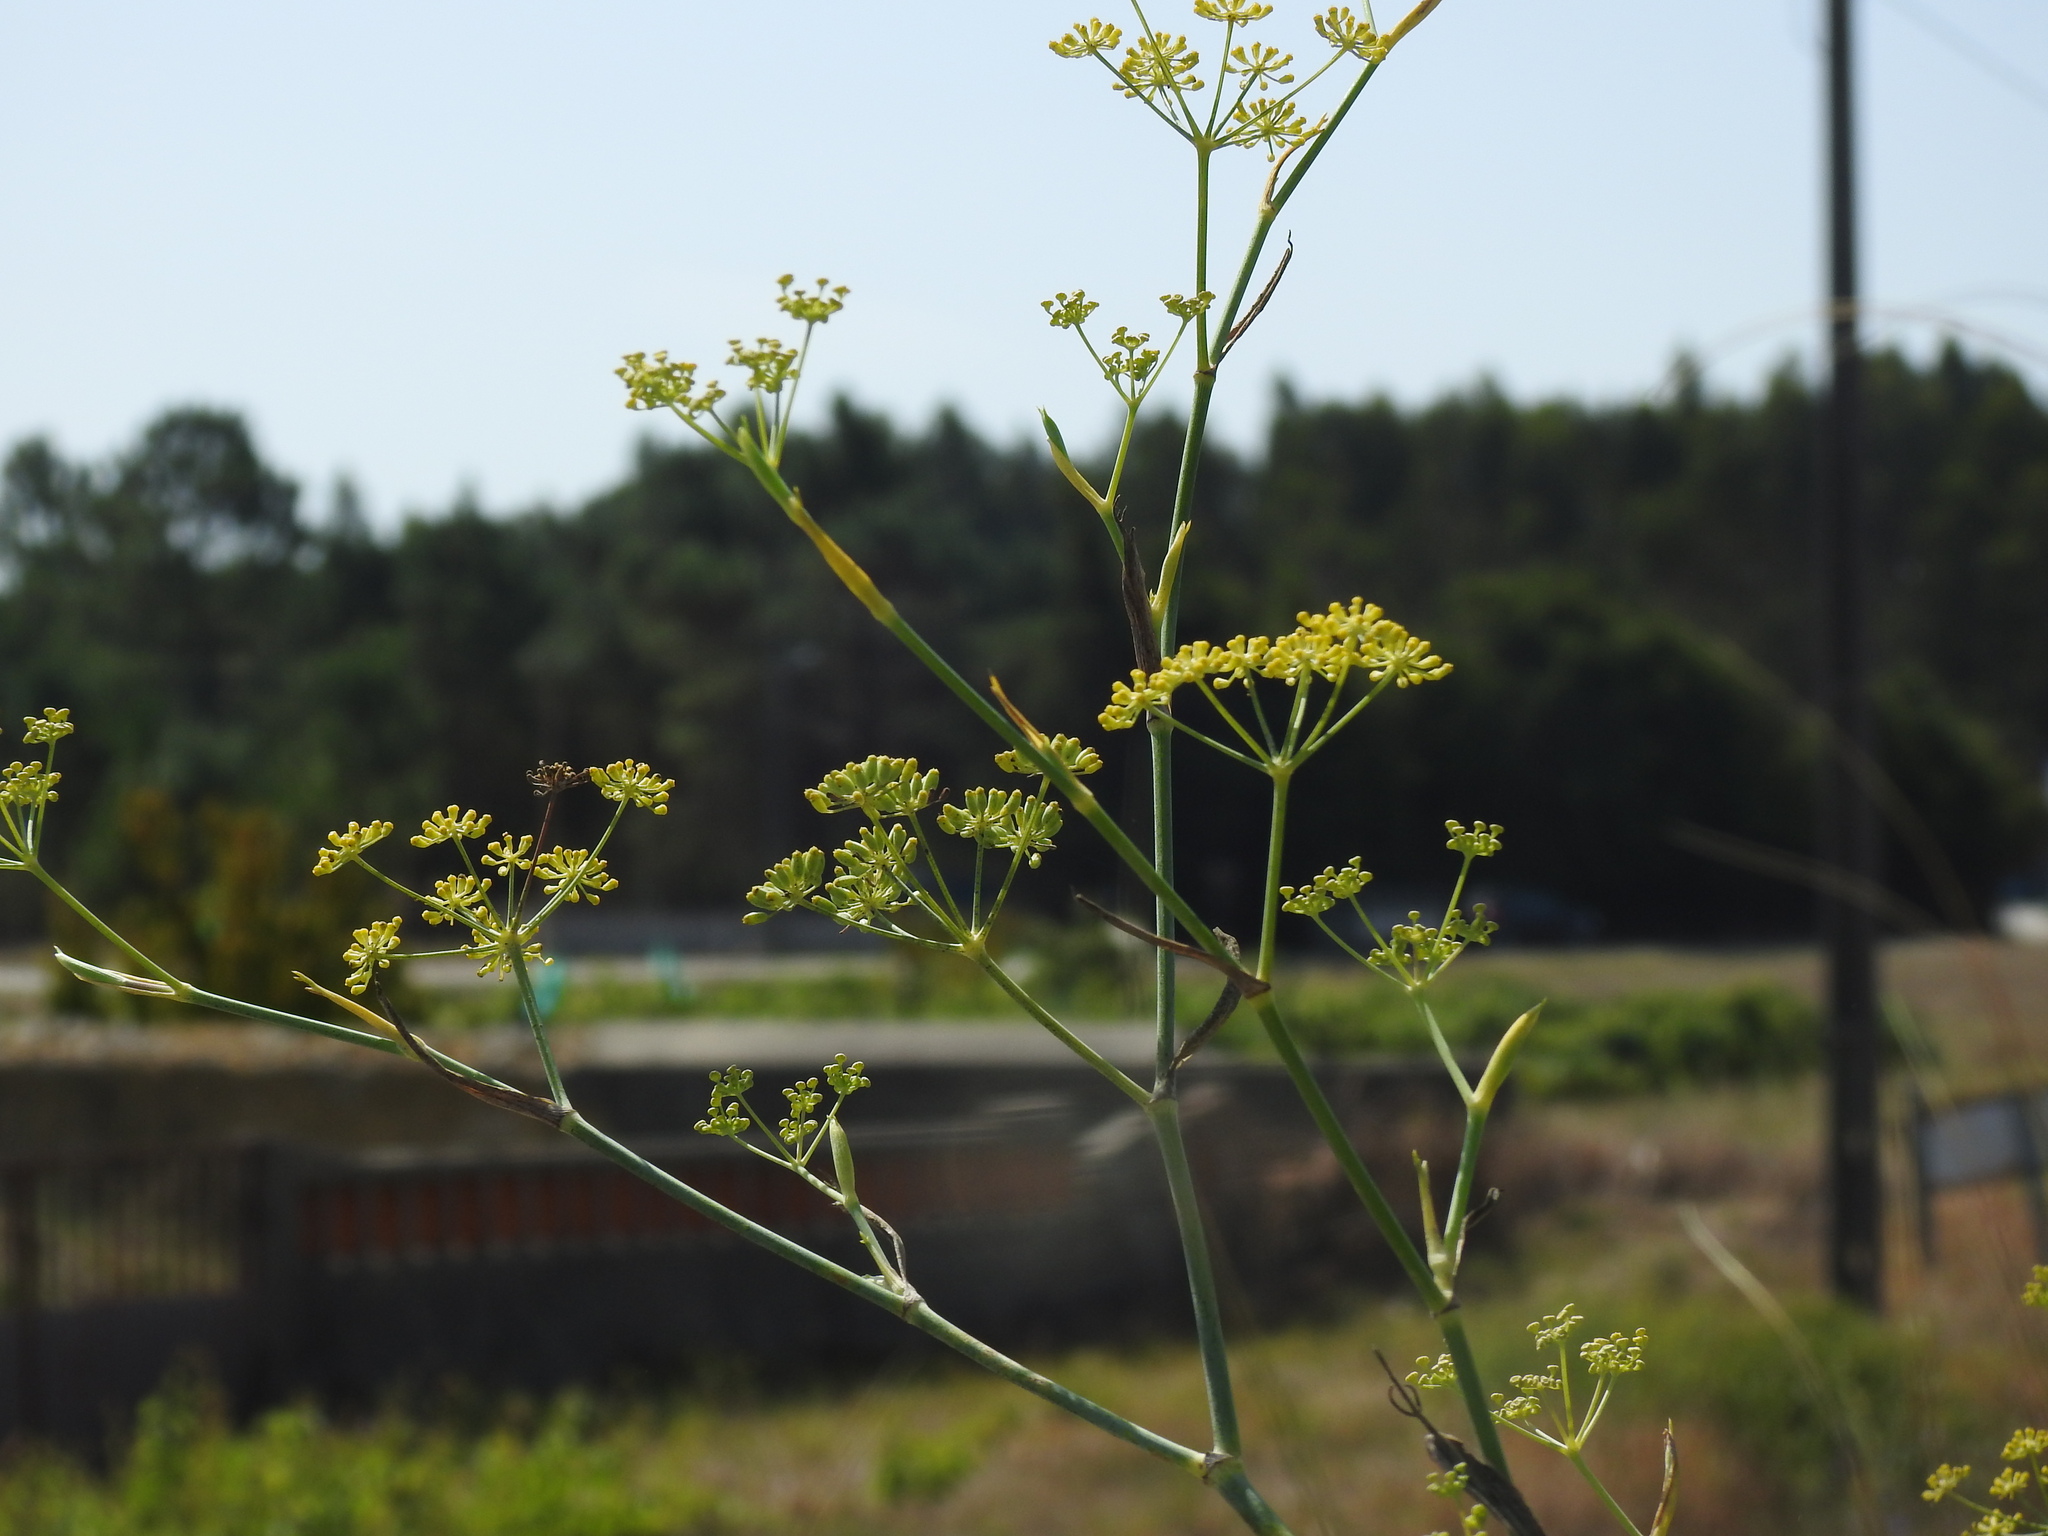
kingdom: Plantae
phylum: Tracheophyta
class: Magnoliopsida
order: Apiales
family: Apiaceae
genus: Foeniculum
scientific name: Foeniculum vulgare
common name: Fennel
